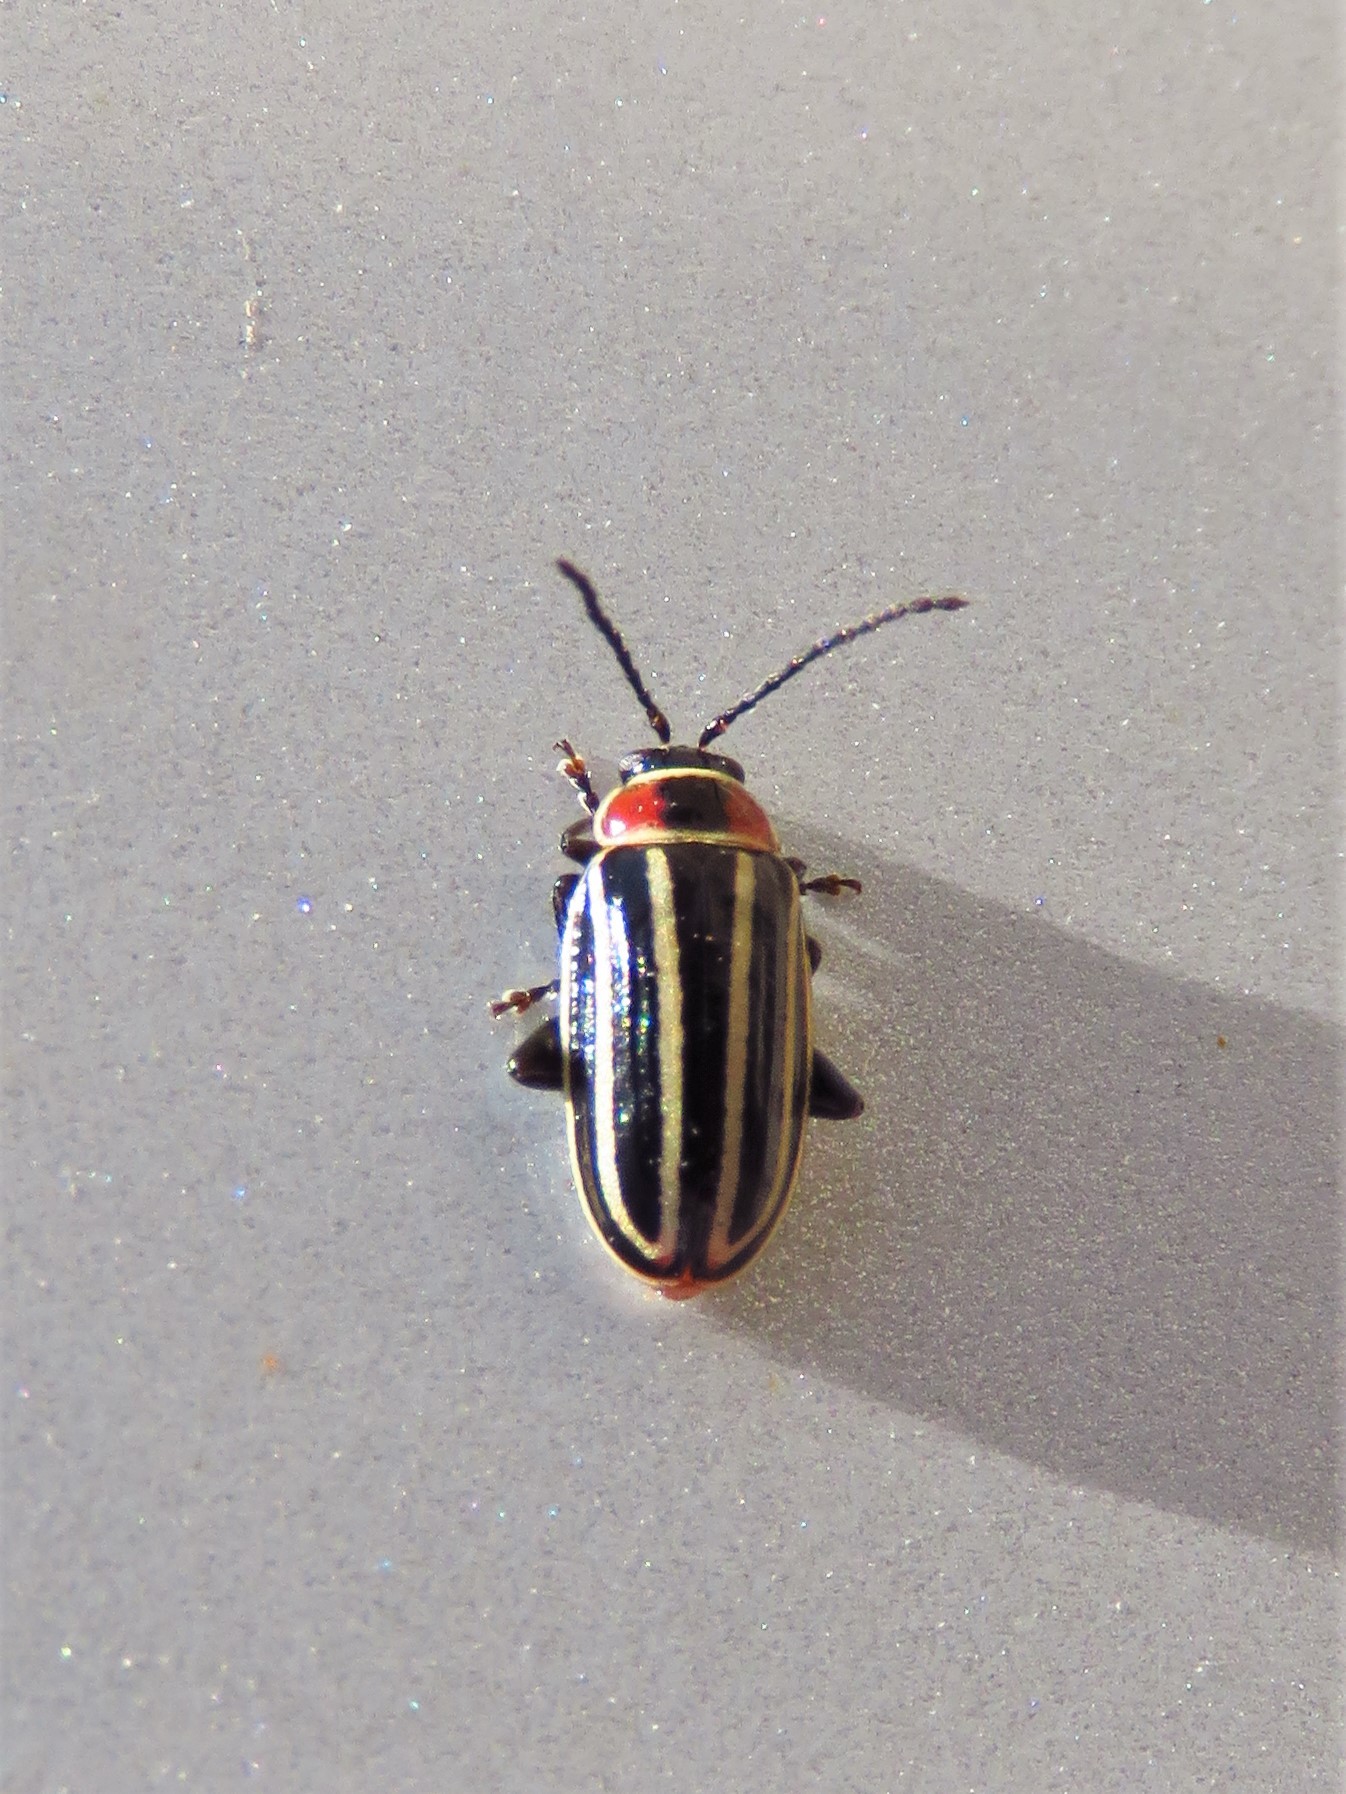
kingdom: Animalia
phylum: Arthropoda
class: Insecta
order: Coleoptera
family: Chrysomelidae
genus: Disonycha
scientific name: Disonycha pensylvanica
